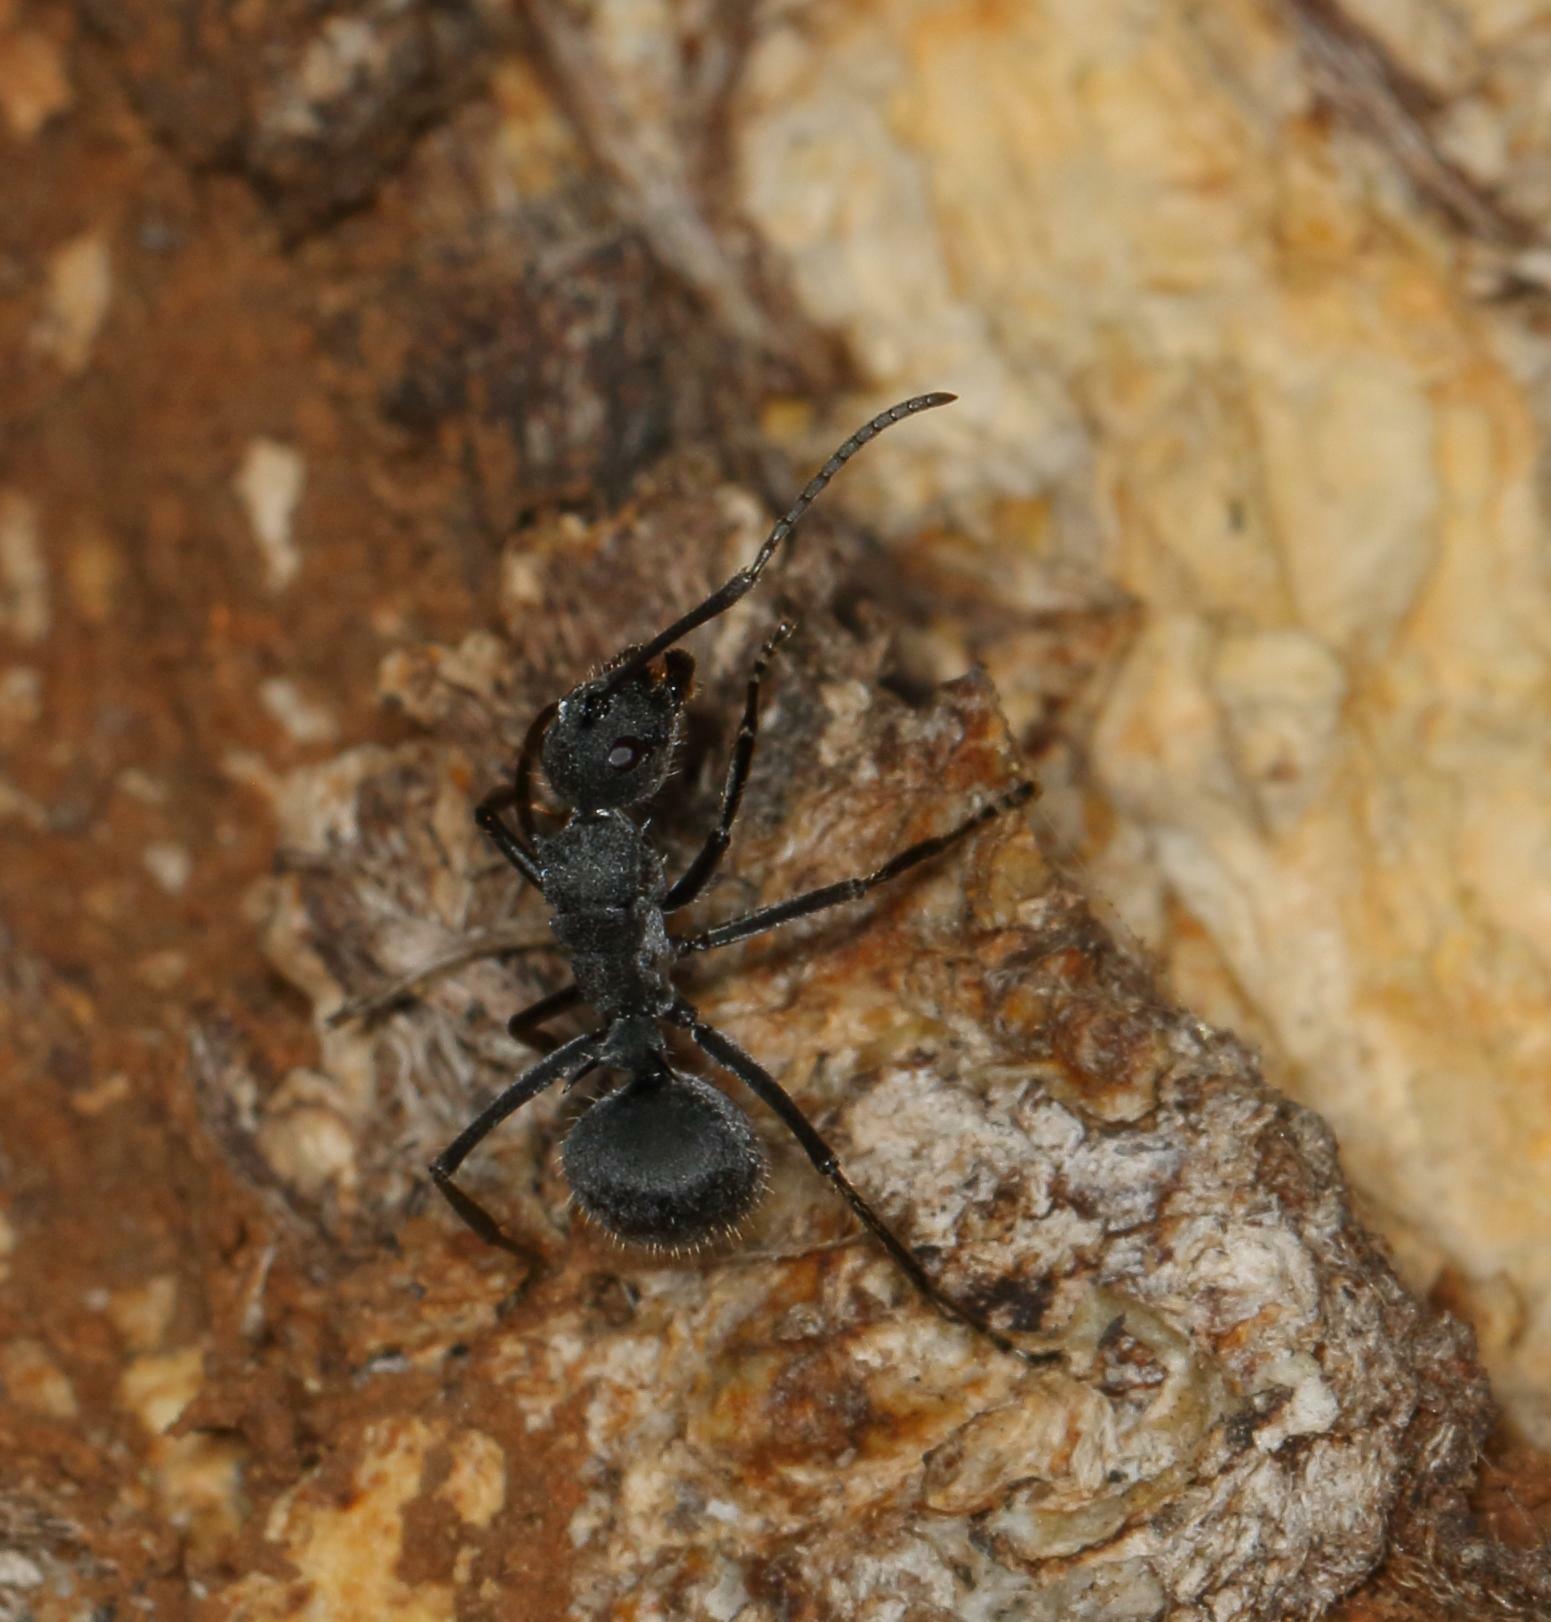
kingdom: Animalia
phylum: Arthropoda
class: Insecta
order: Hymenoptera
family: Formicidae
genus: Polyrhachis
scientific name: Polyrhachis schistacea
